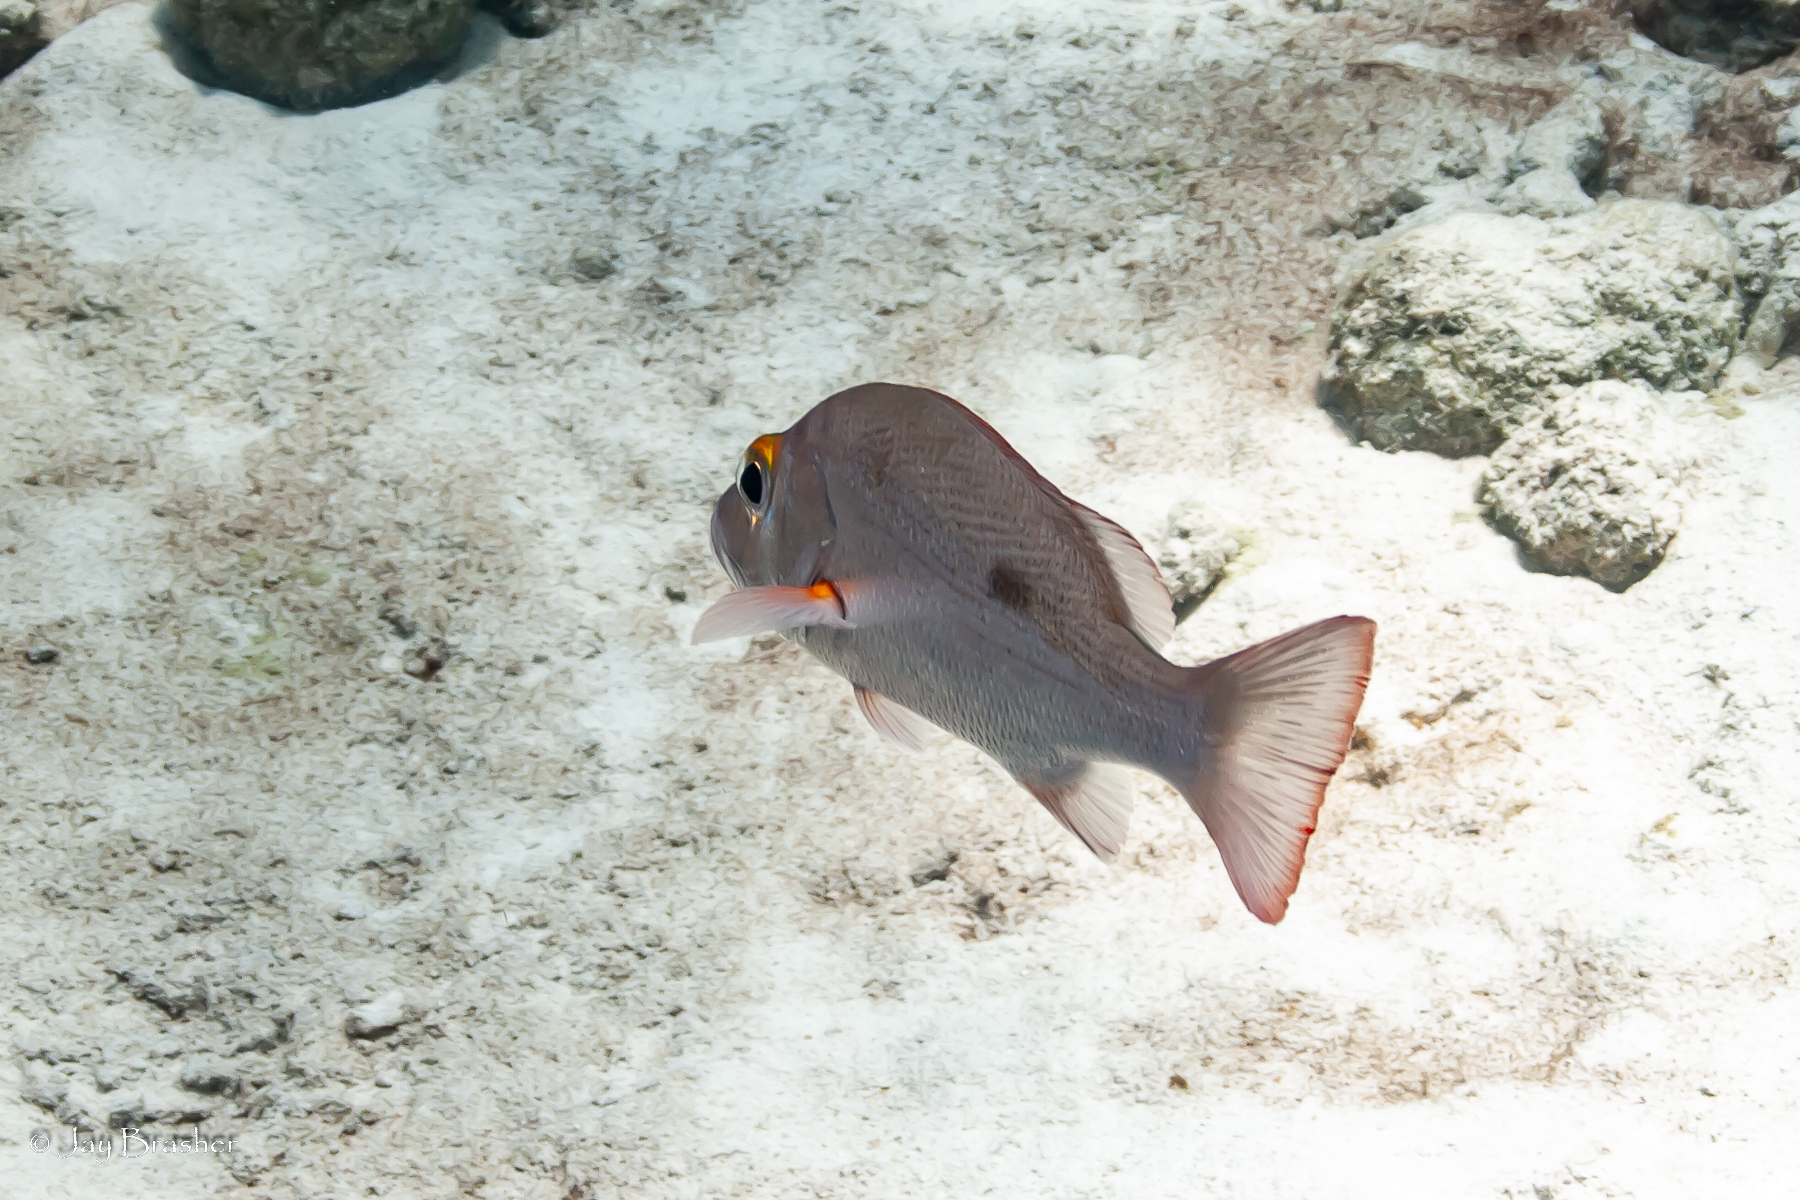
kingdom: Animalia
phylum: Chordata
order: Perciformes
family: Lutjanidae
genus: Lutjanus
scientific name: Lutjanus mahogoni
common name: Spot snapper
